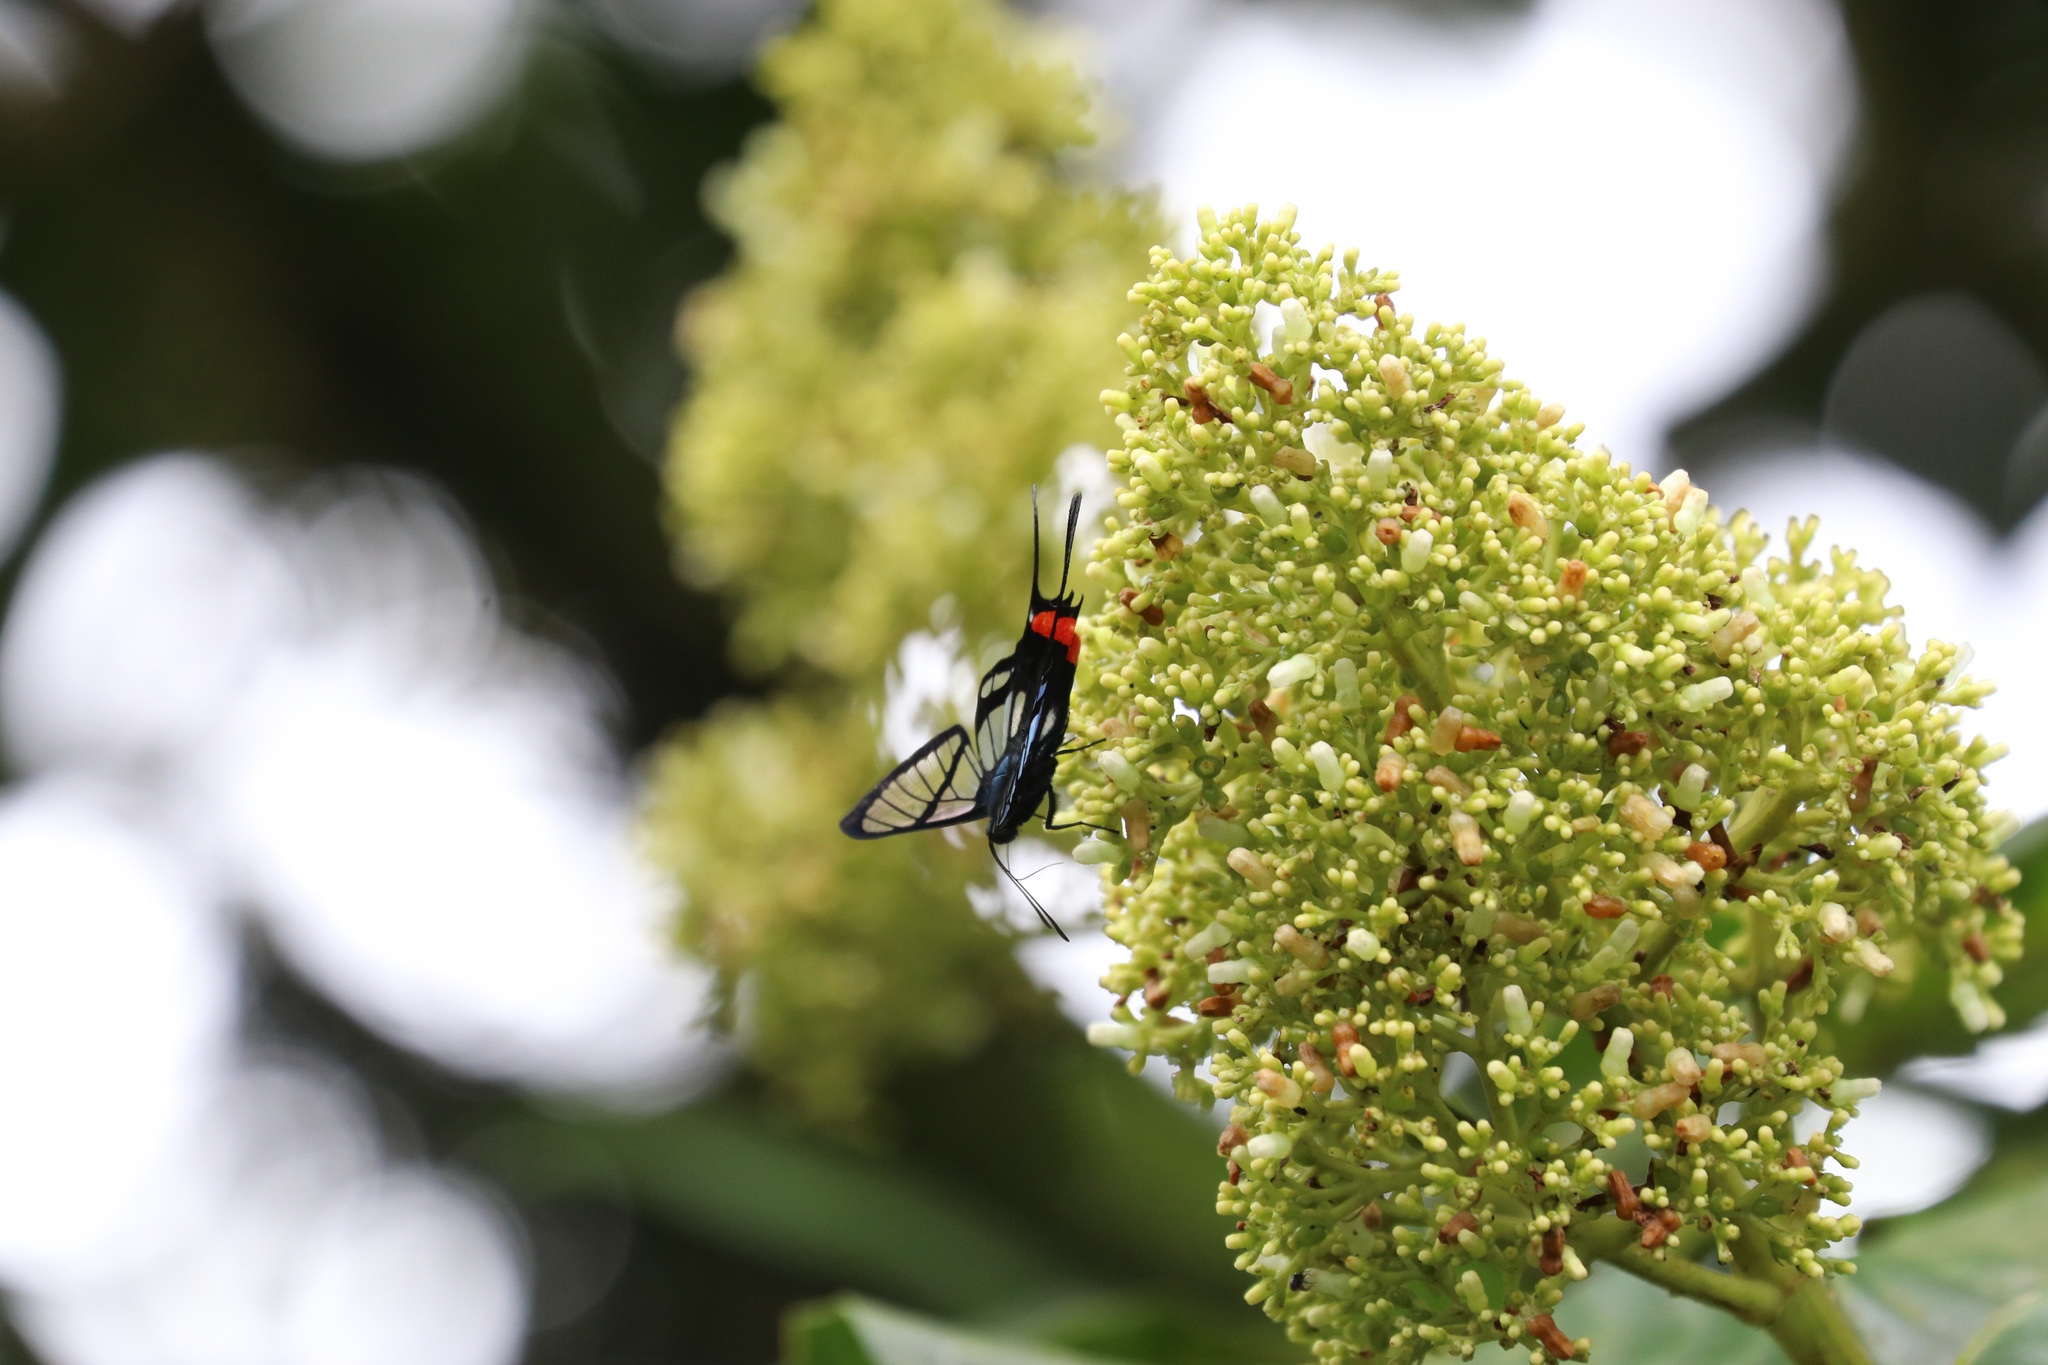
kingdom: Animalia
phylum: Arthropoda
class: Insecta
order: Lepidoptera
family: Riodinidae
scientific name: Riodinidae
